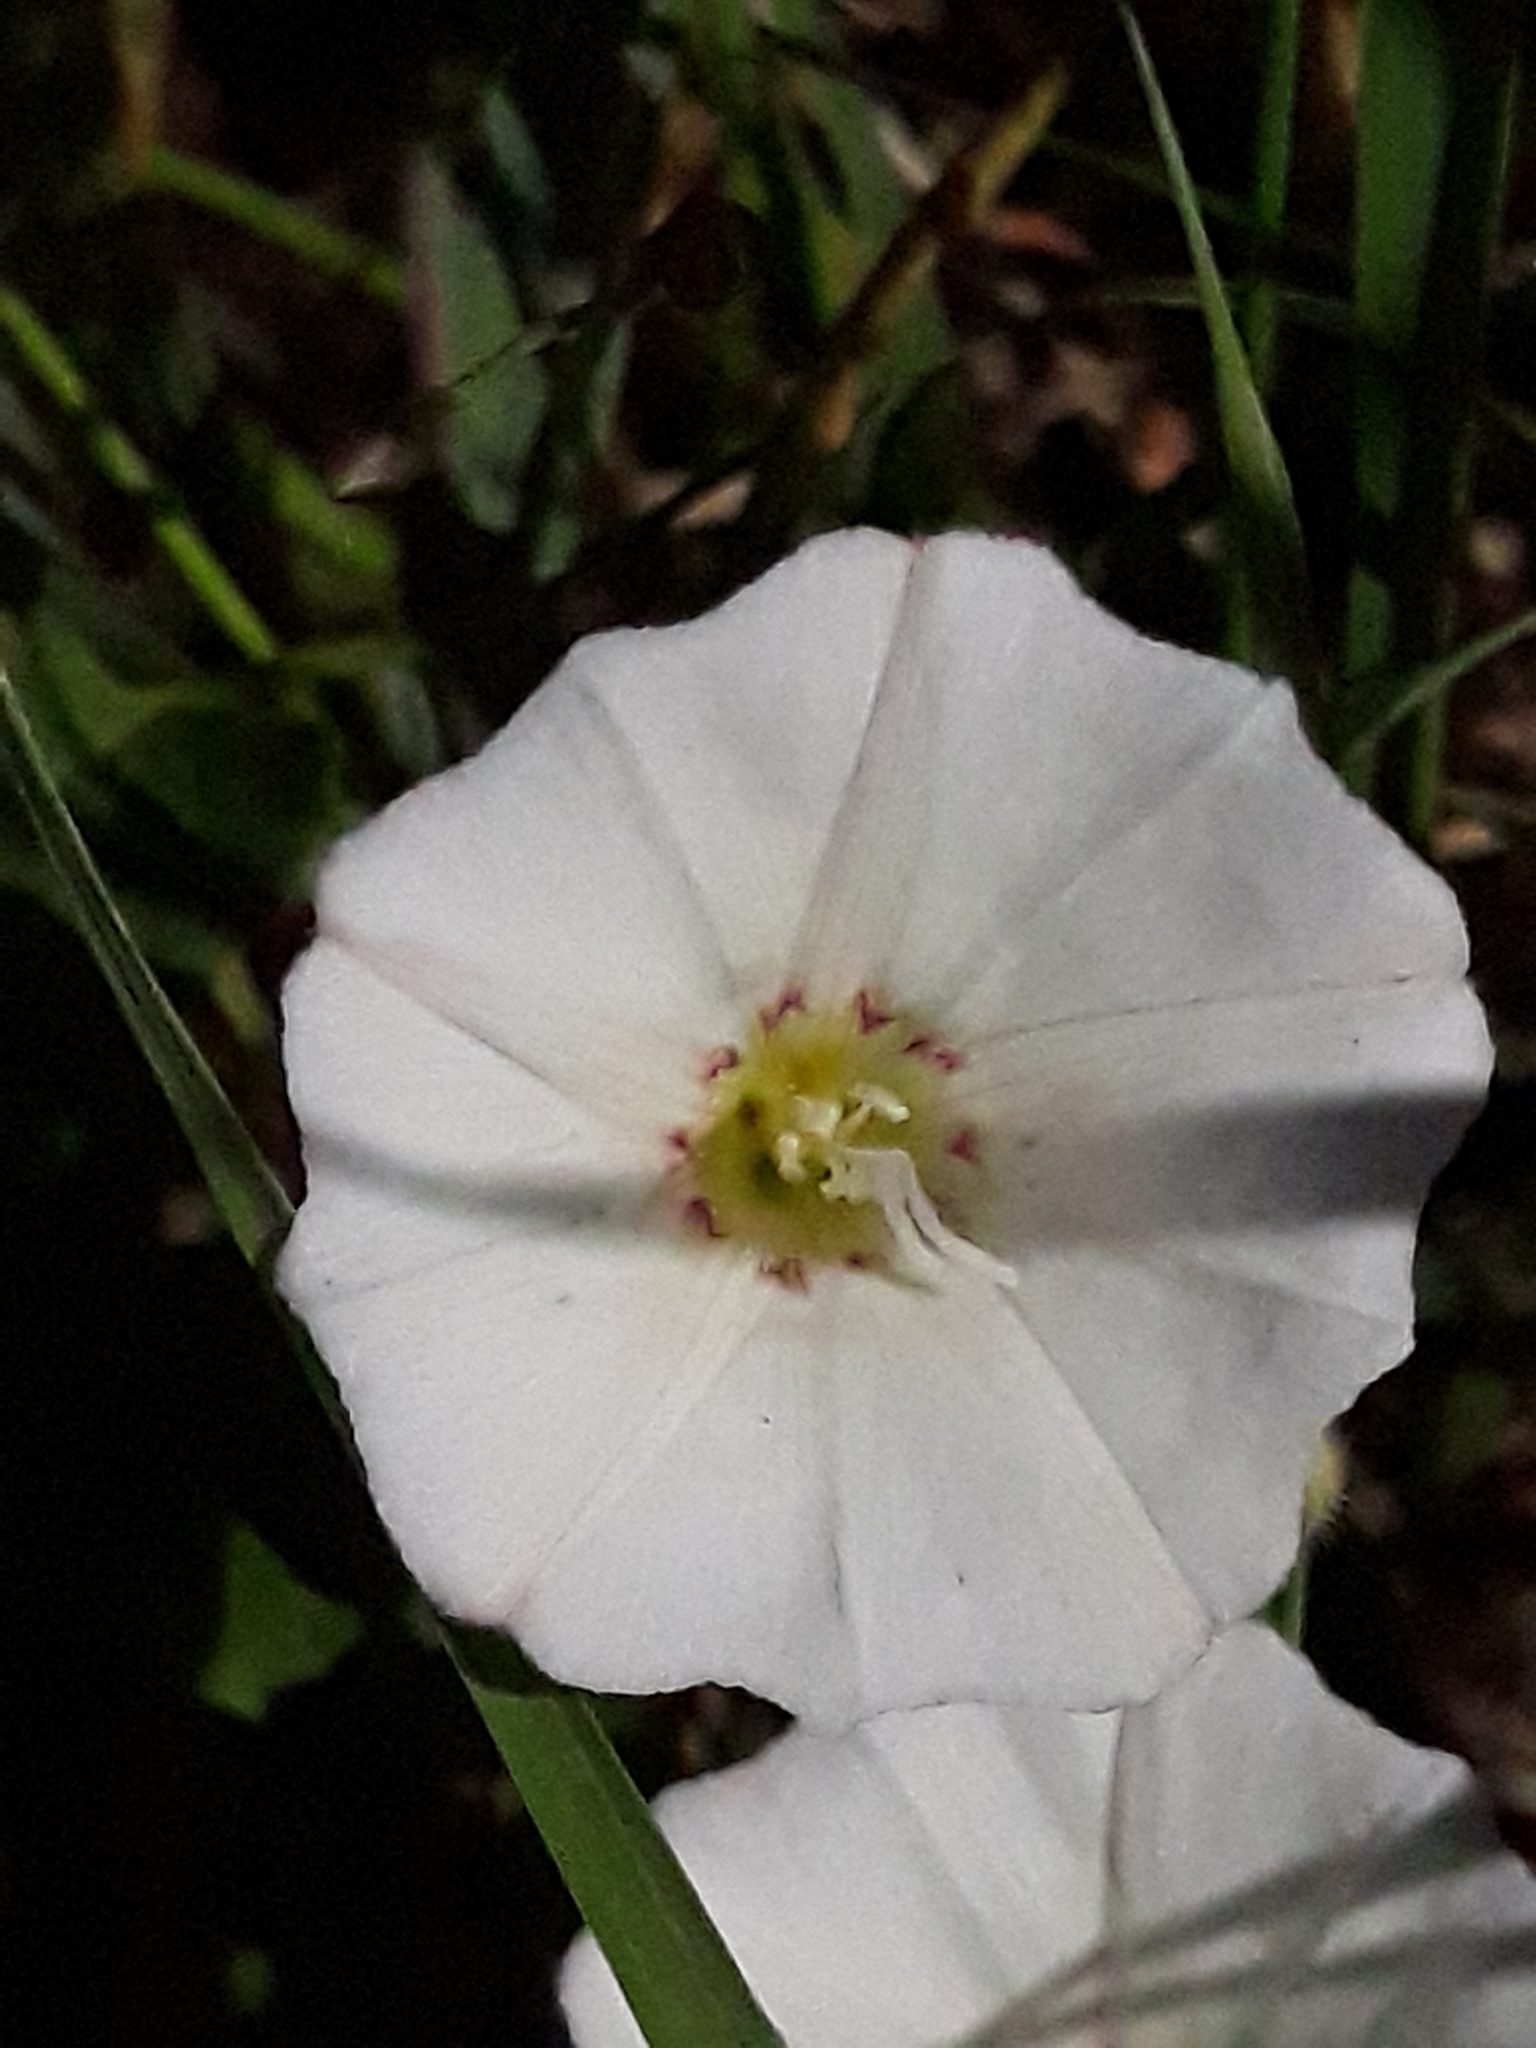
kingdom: Plantae
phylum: Tracheophyta
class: Magnoliopsida
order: Solanales
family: Convolvulaceae
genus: Convolvulus
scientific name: Convolvulus arvensis
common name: Field bindweed
